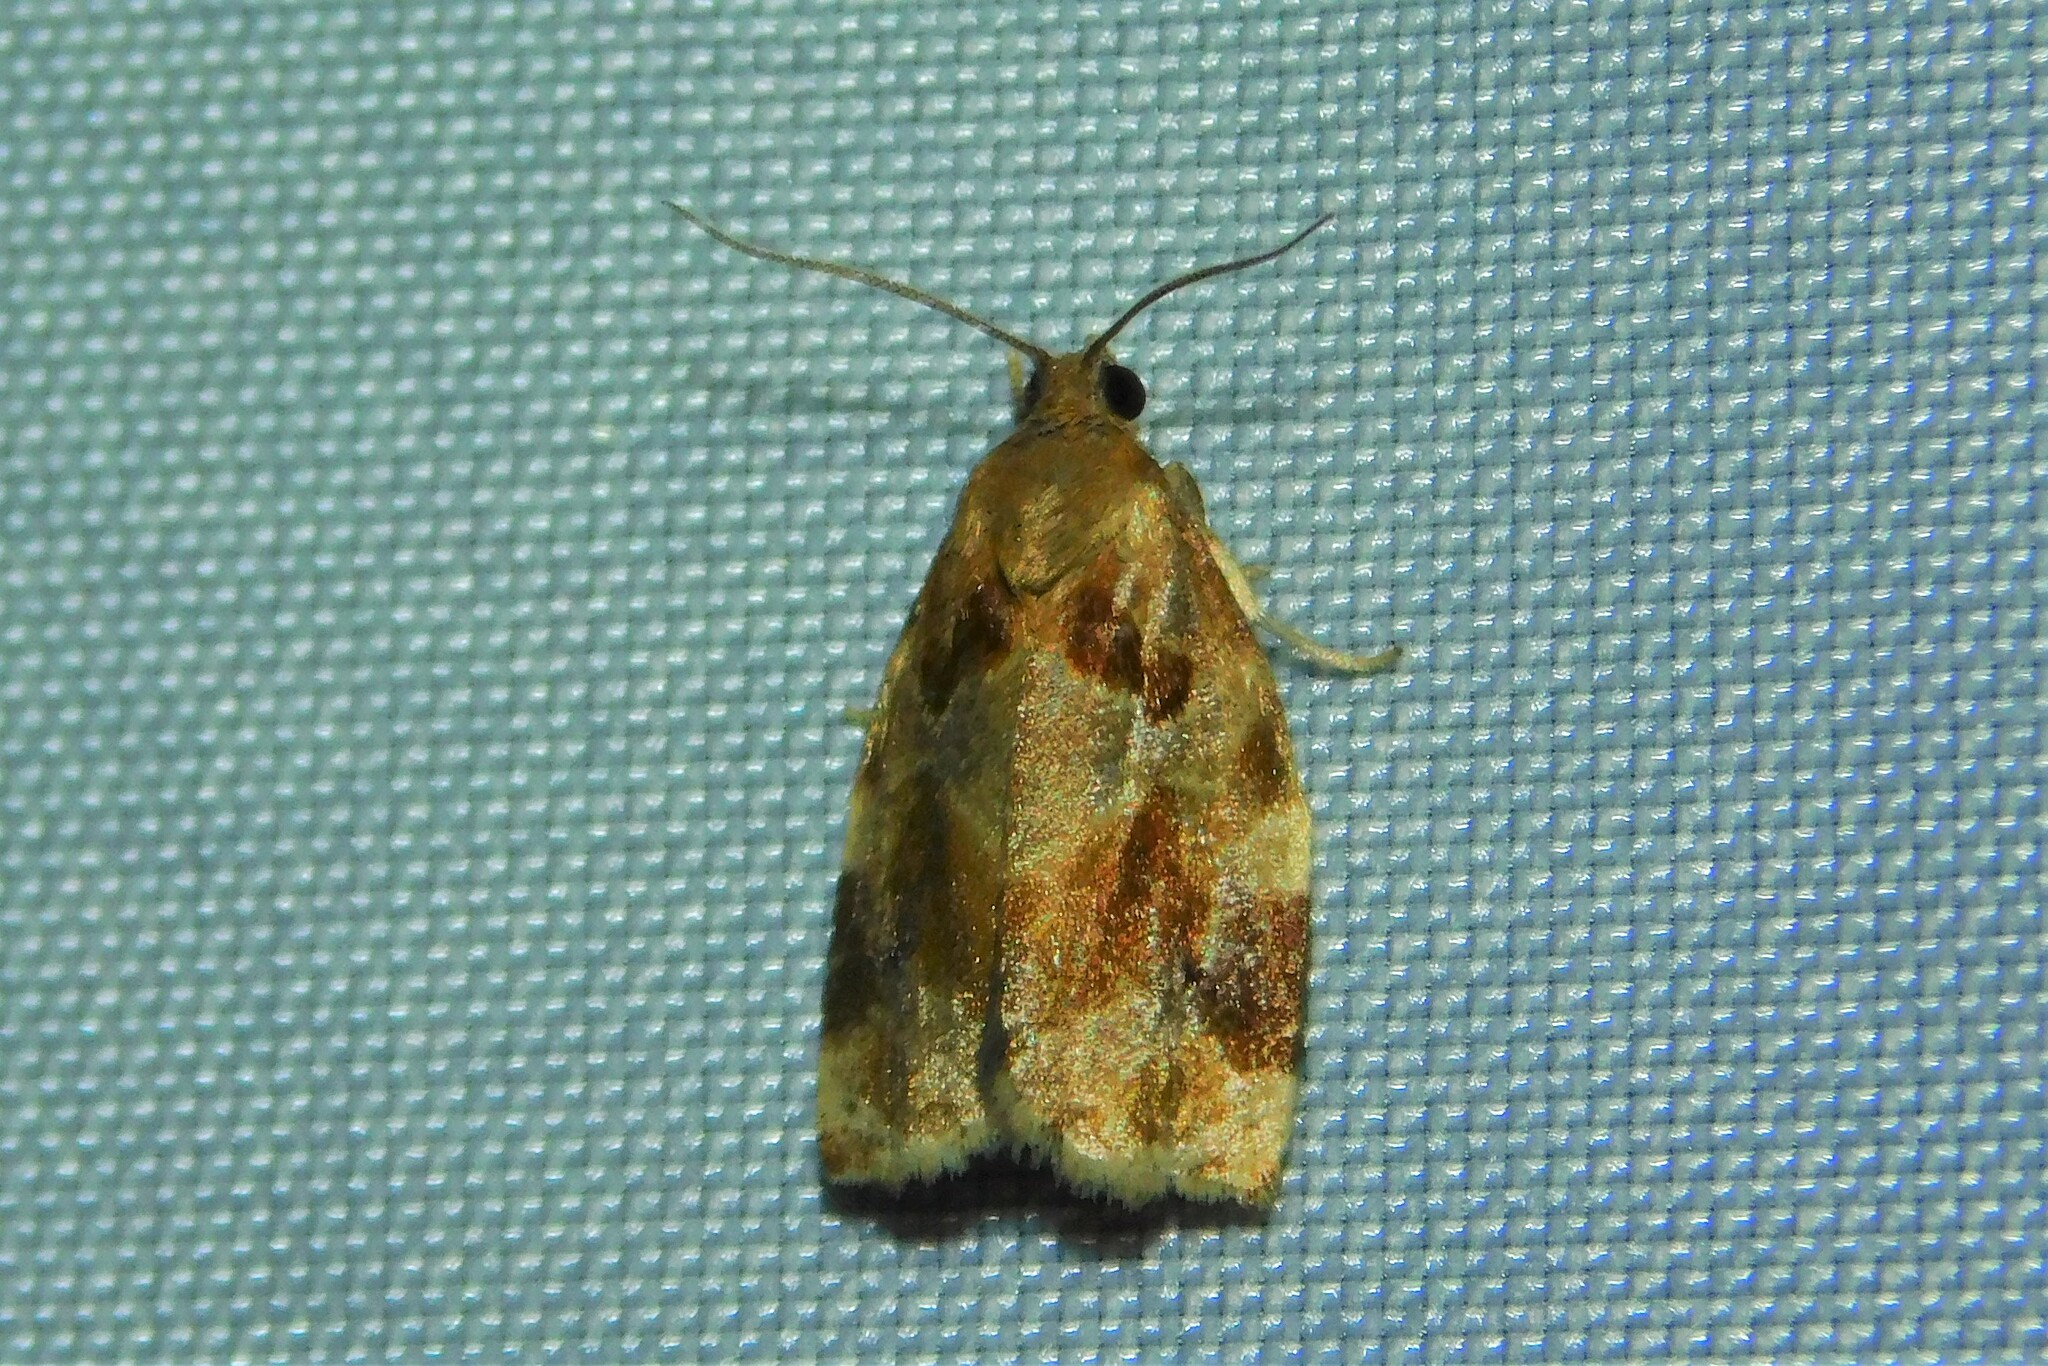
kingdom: Animalia
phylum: Arthropoda
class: Insecta
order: Lepidoptera
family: Tortricidae
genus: Archips
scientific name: Archips xylosteana
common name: Variegated golden tortrix
